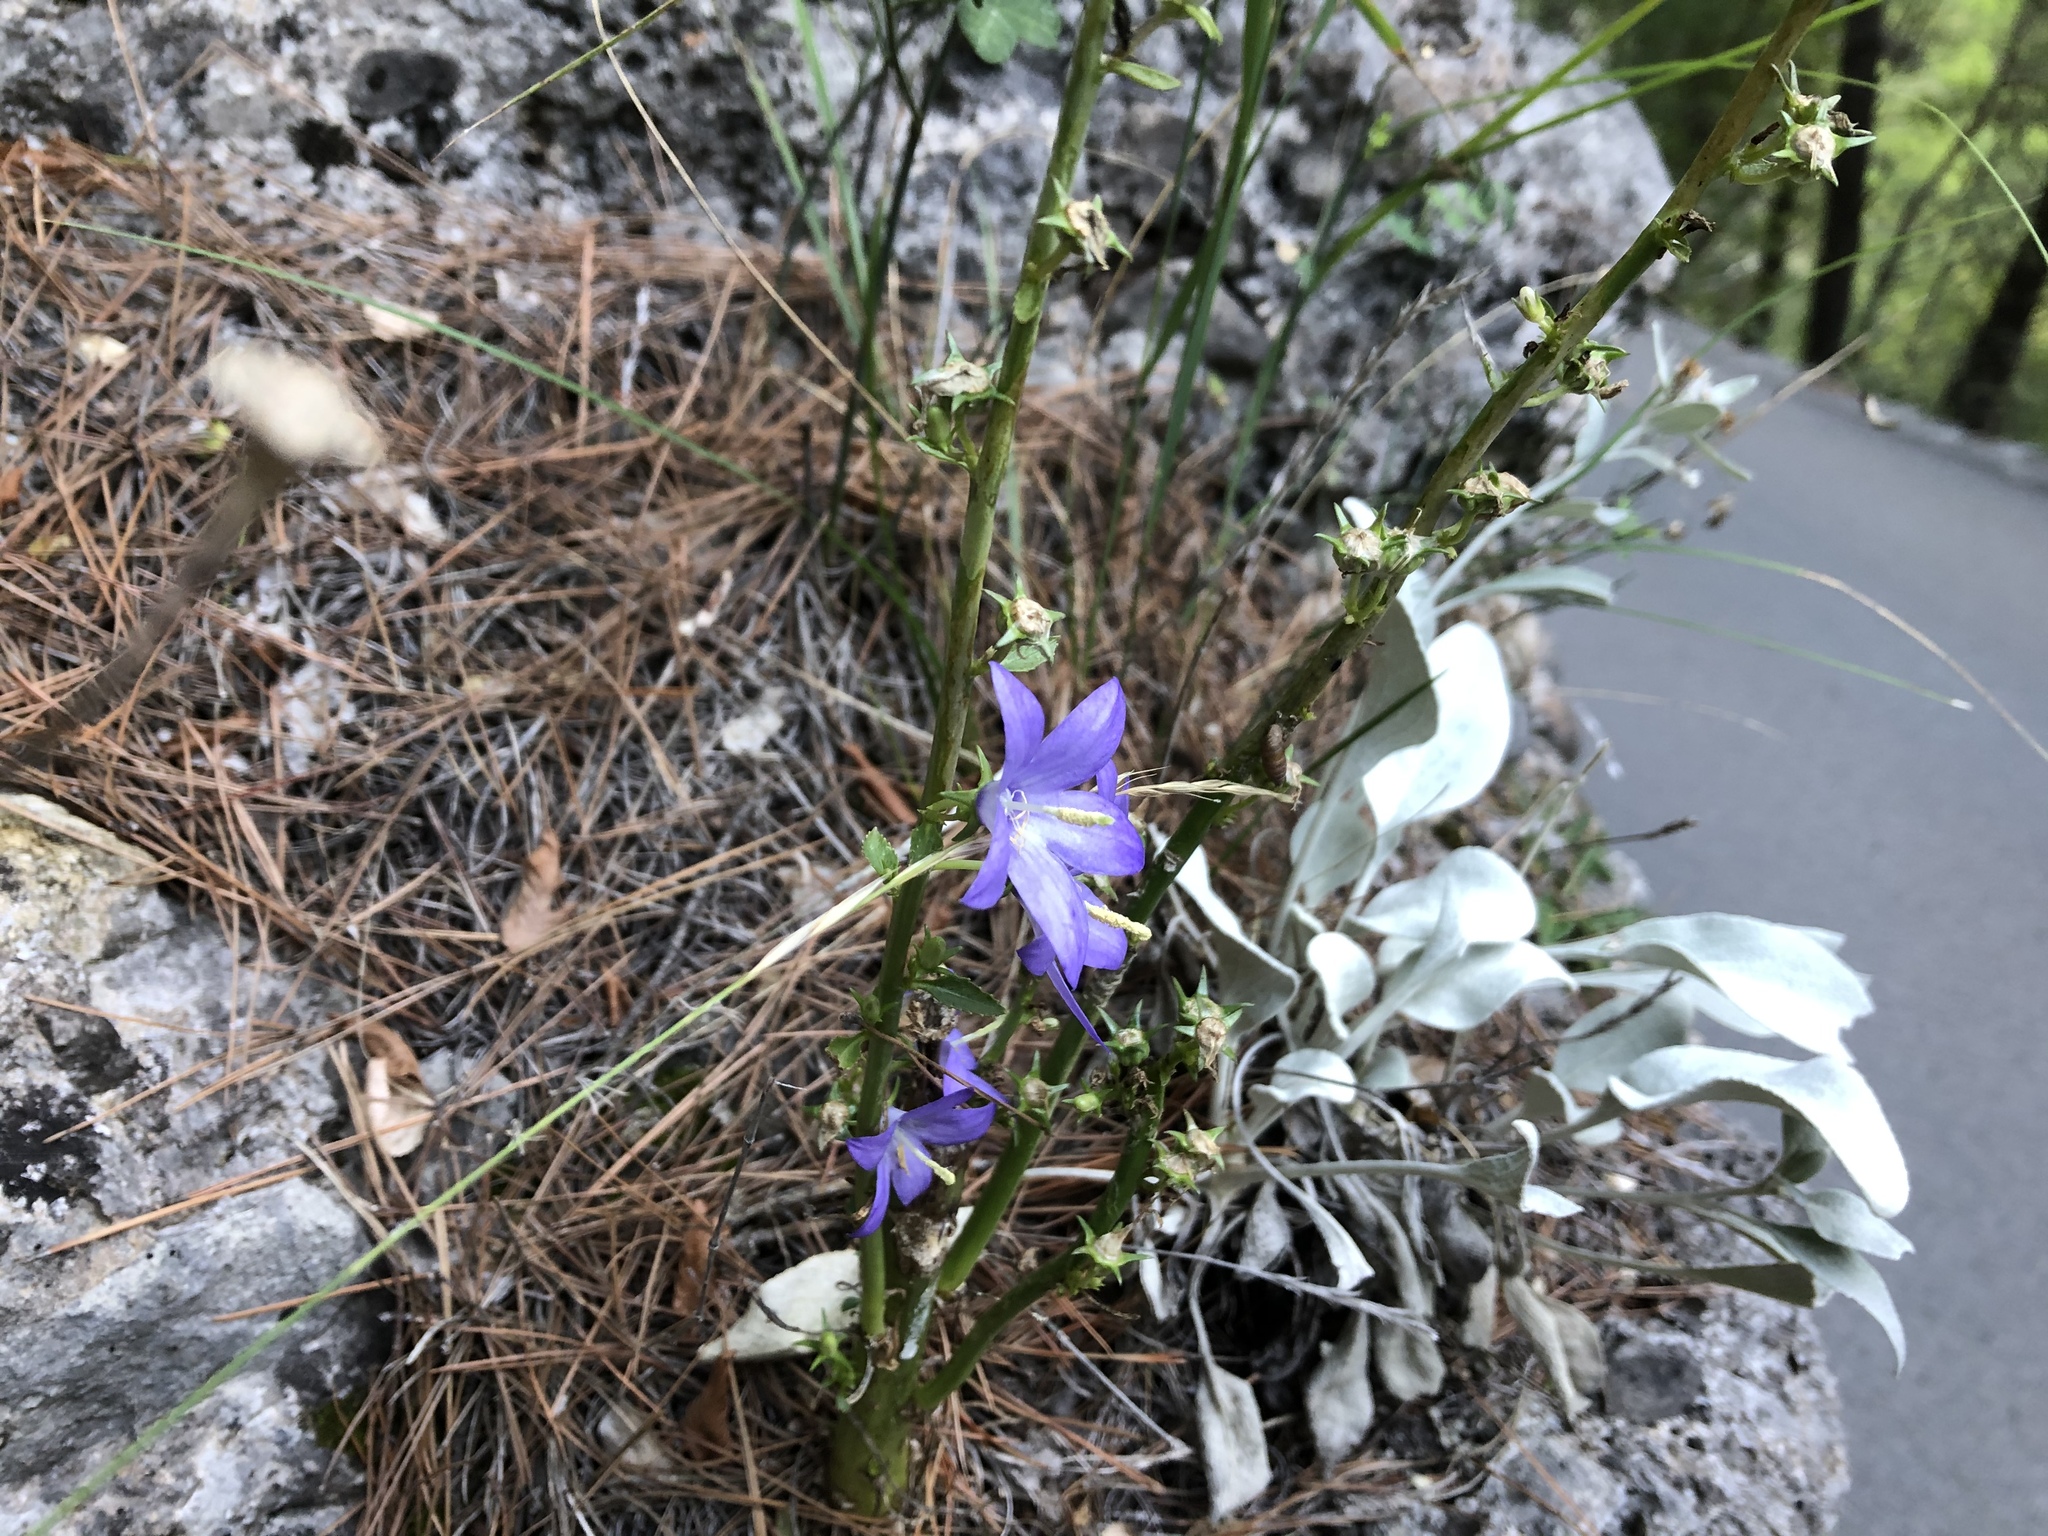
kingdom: Plantae
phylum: Tracheophyta
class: Magnoliopsida
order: Asterales
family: Campanulaceae
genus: Campanula
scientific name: Campanula pyramidalis
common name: Chimney bellflower
